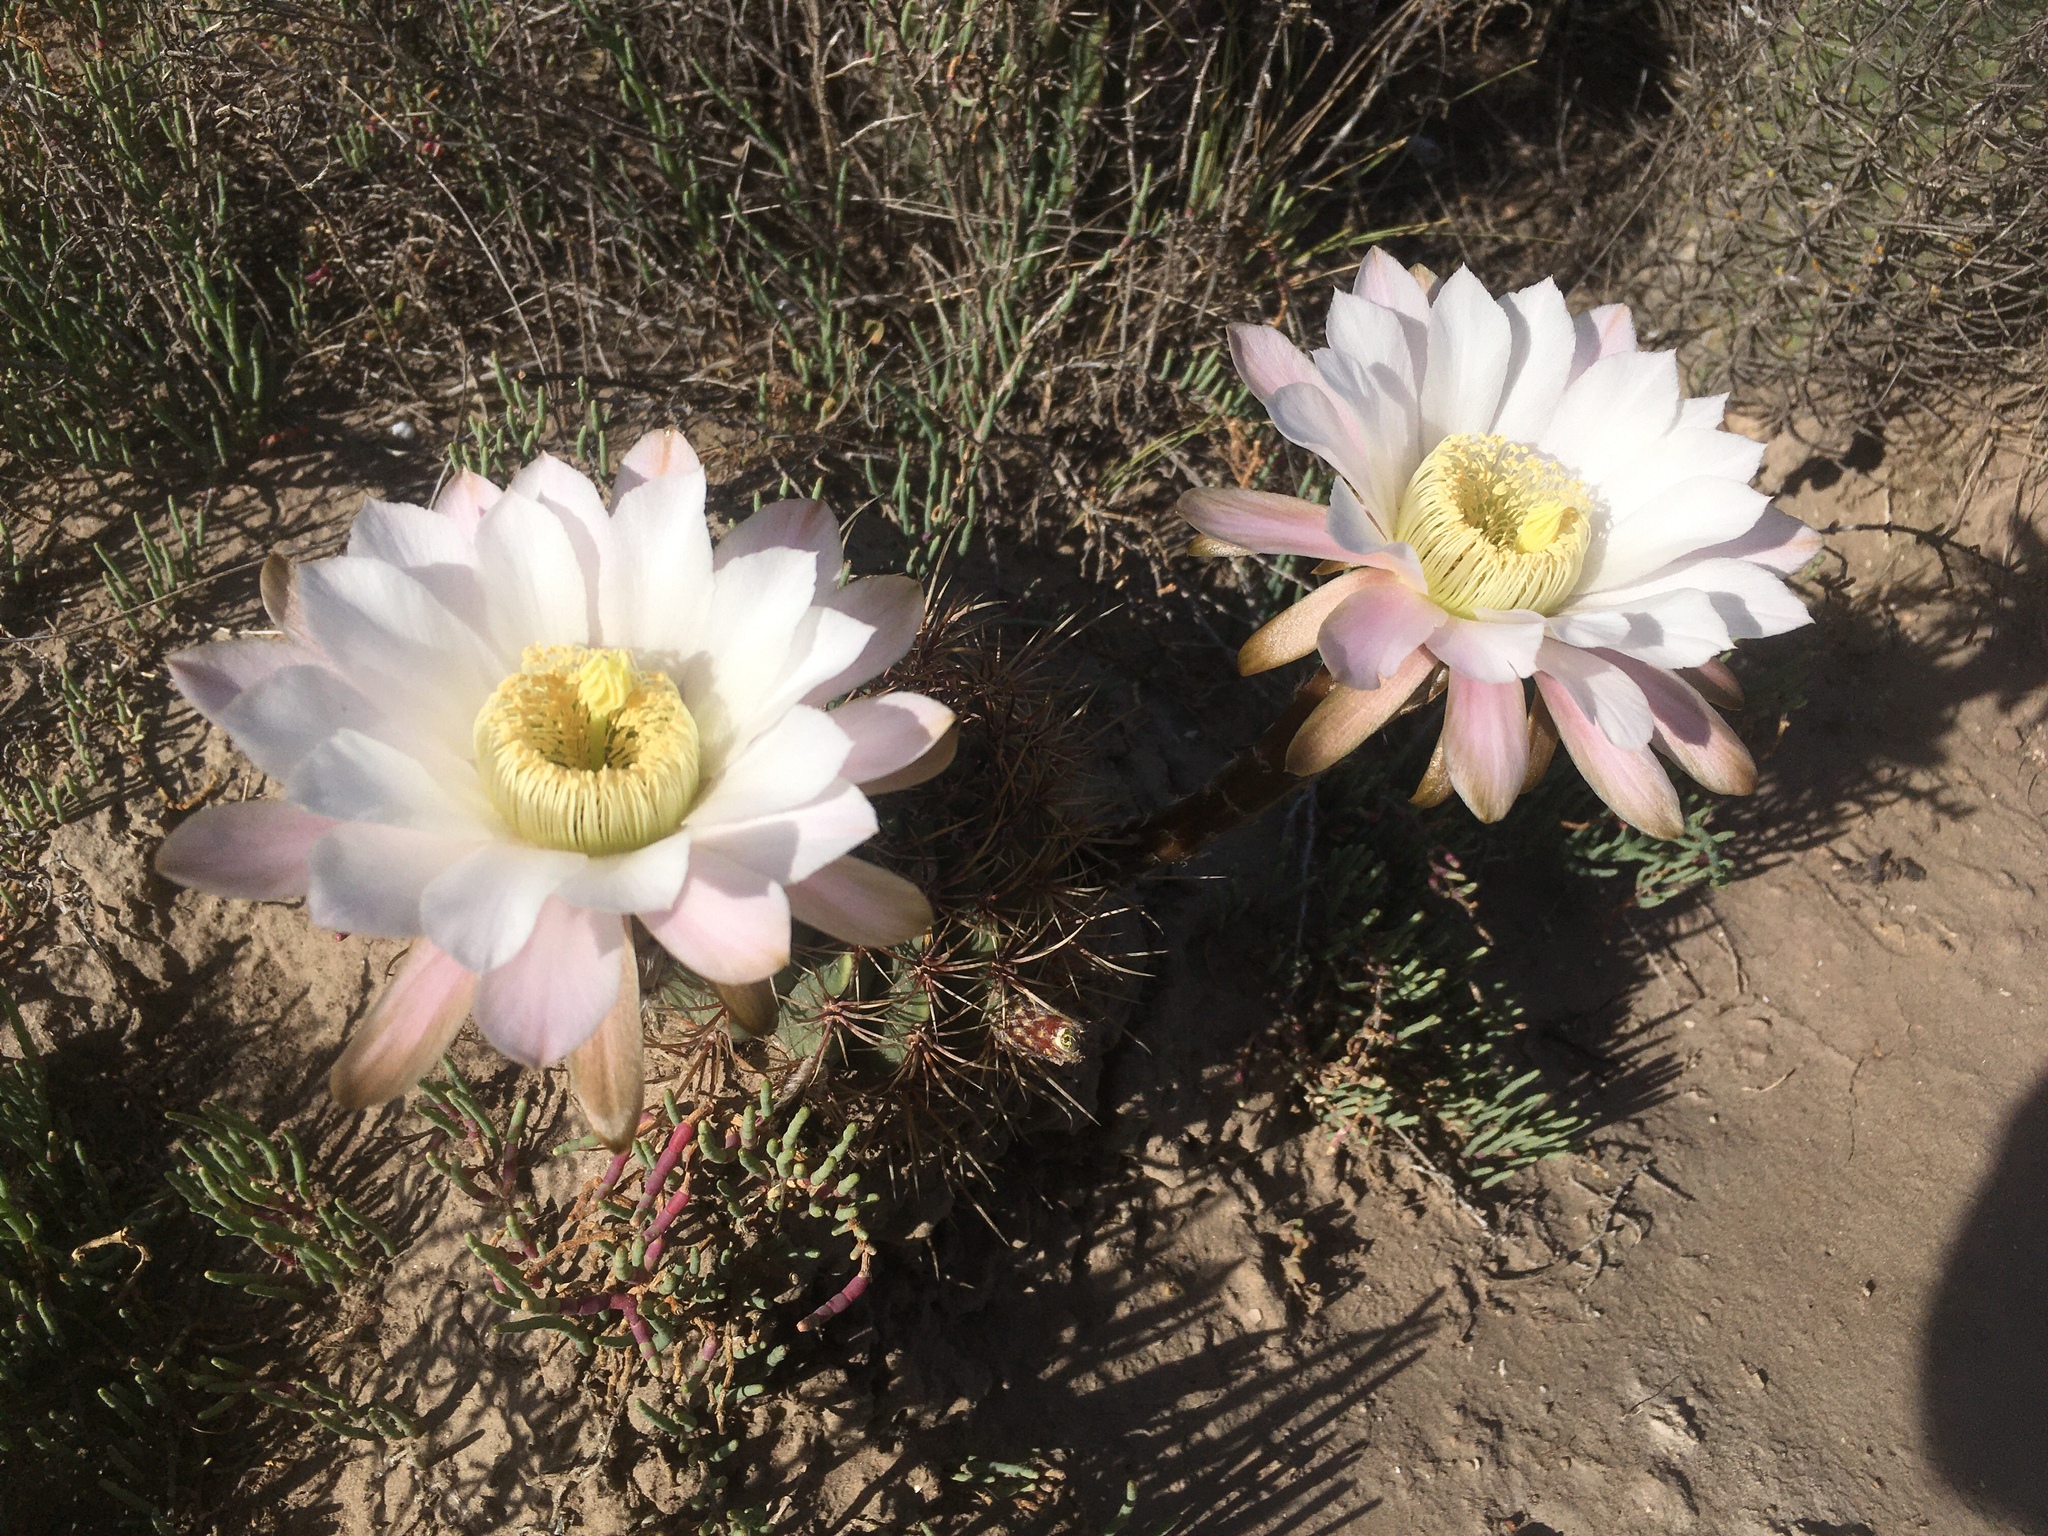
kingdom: Plantae
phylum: Tracheophyta
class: Magnoliopsida
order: Caryophyllales
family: Cactaceae
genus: Acanthocalycium
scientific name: Acanthocalycium leucanthum
